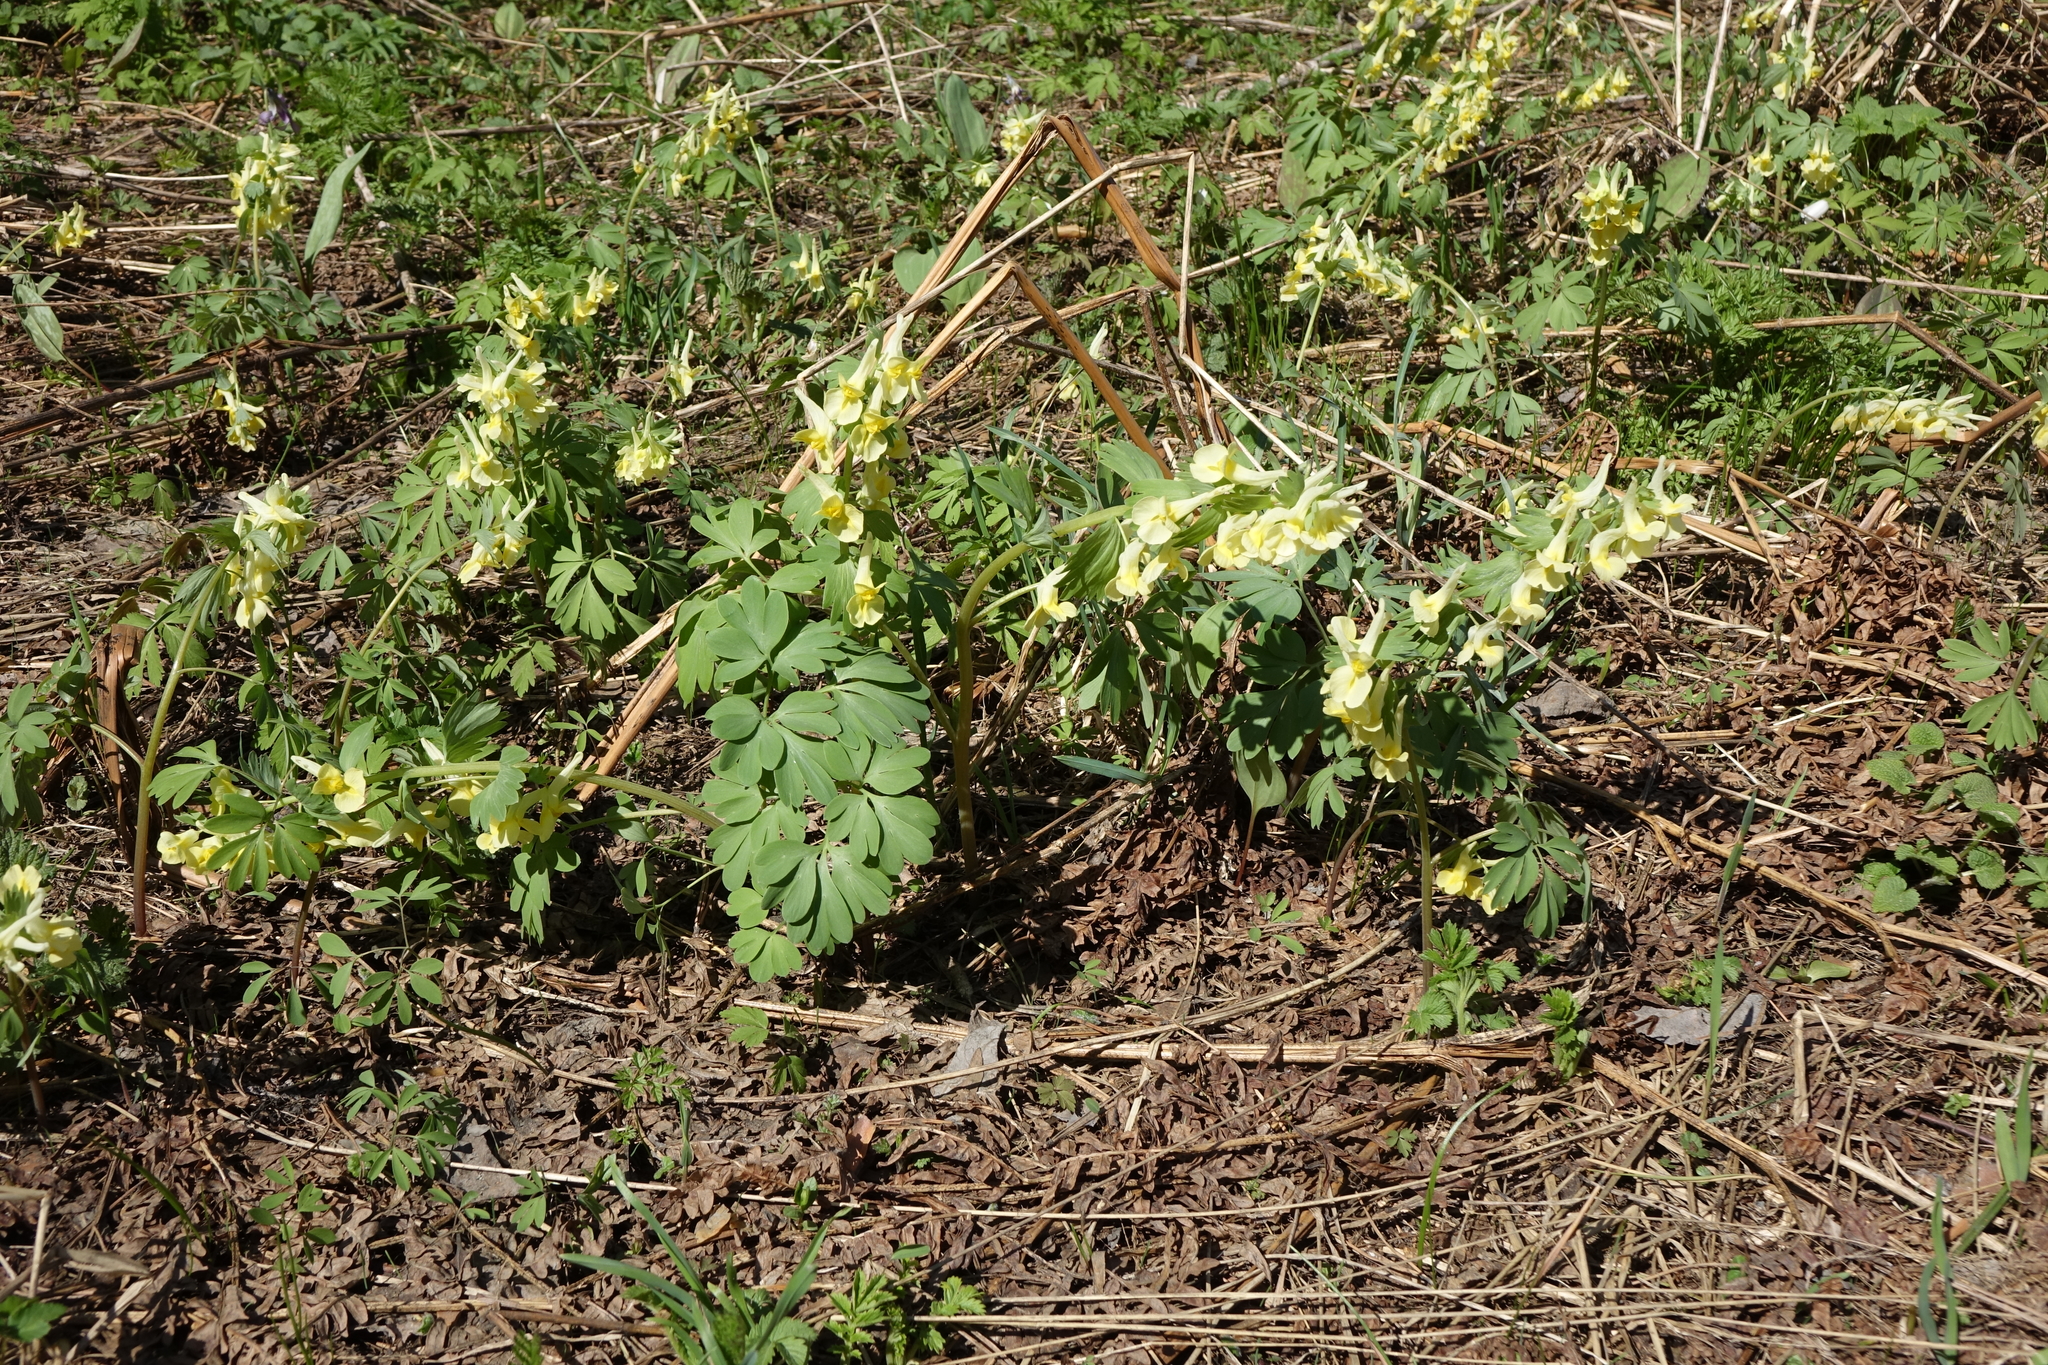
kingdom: Plantae
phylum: Tracheophyta
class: Magnoliopsida
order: Ranunculales
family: Papaveraceae
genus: Corydalis
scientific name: Corydalis bracteata
